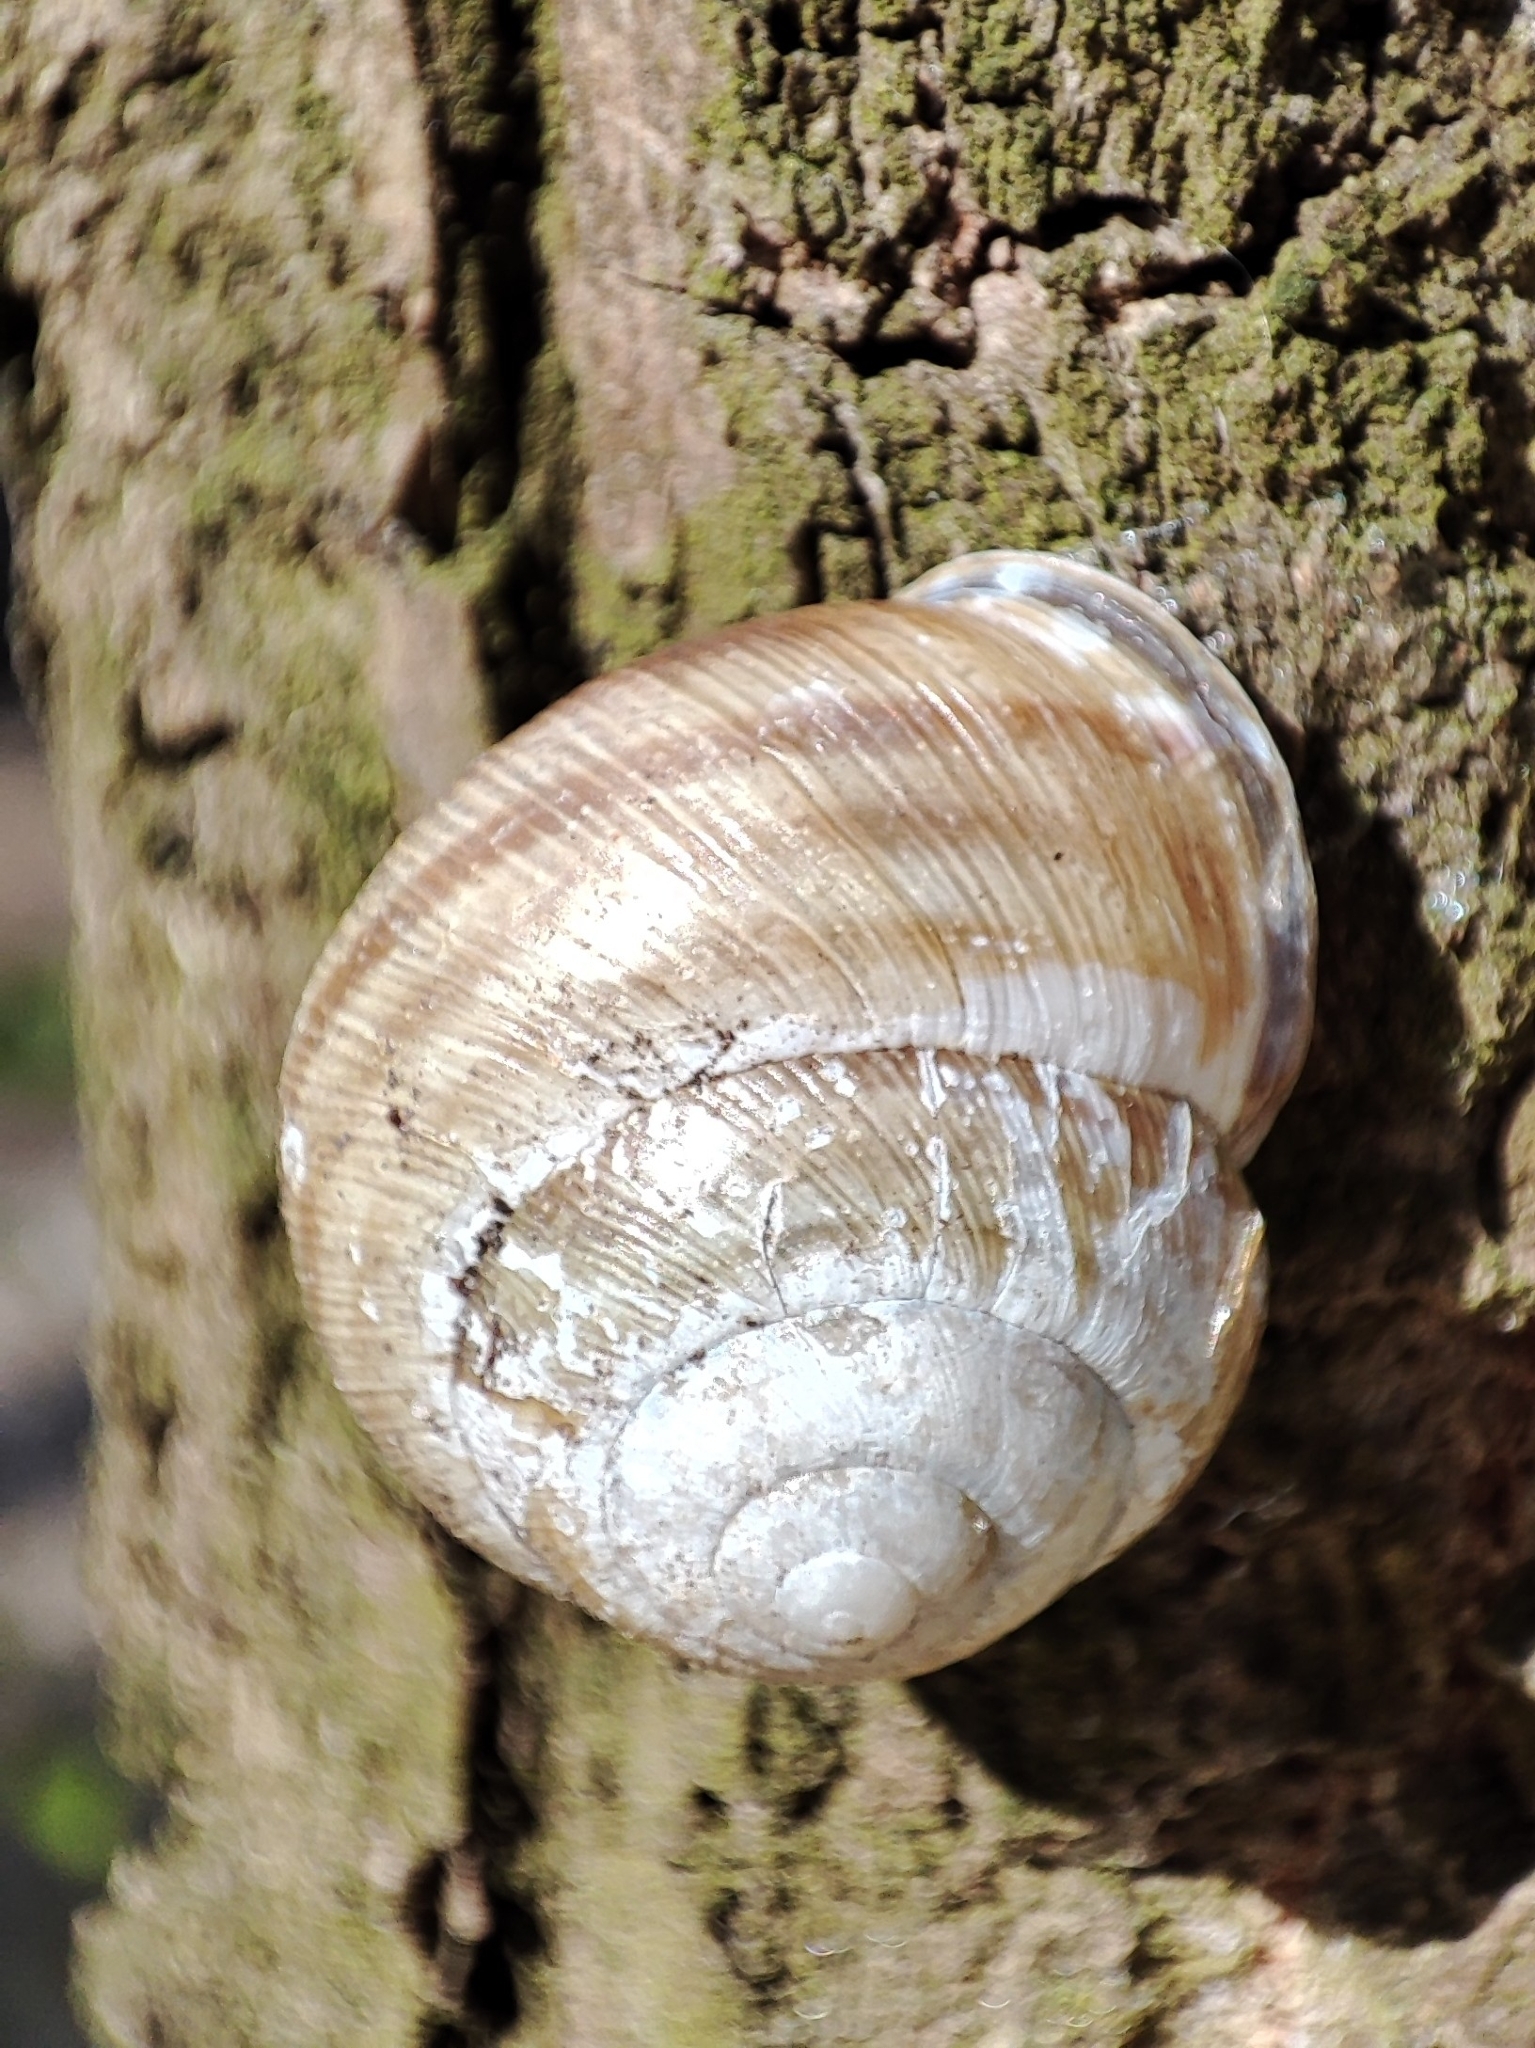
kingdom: Animalia
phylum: Mollusca
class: Gastropoda
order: Stylommatophora
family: Helicidae
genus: Caucasotachea
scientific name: Caucasotachea vindobonensis
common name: European helicid land snail
